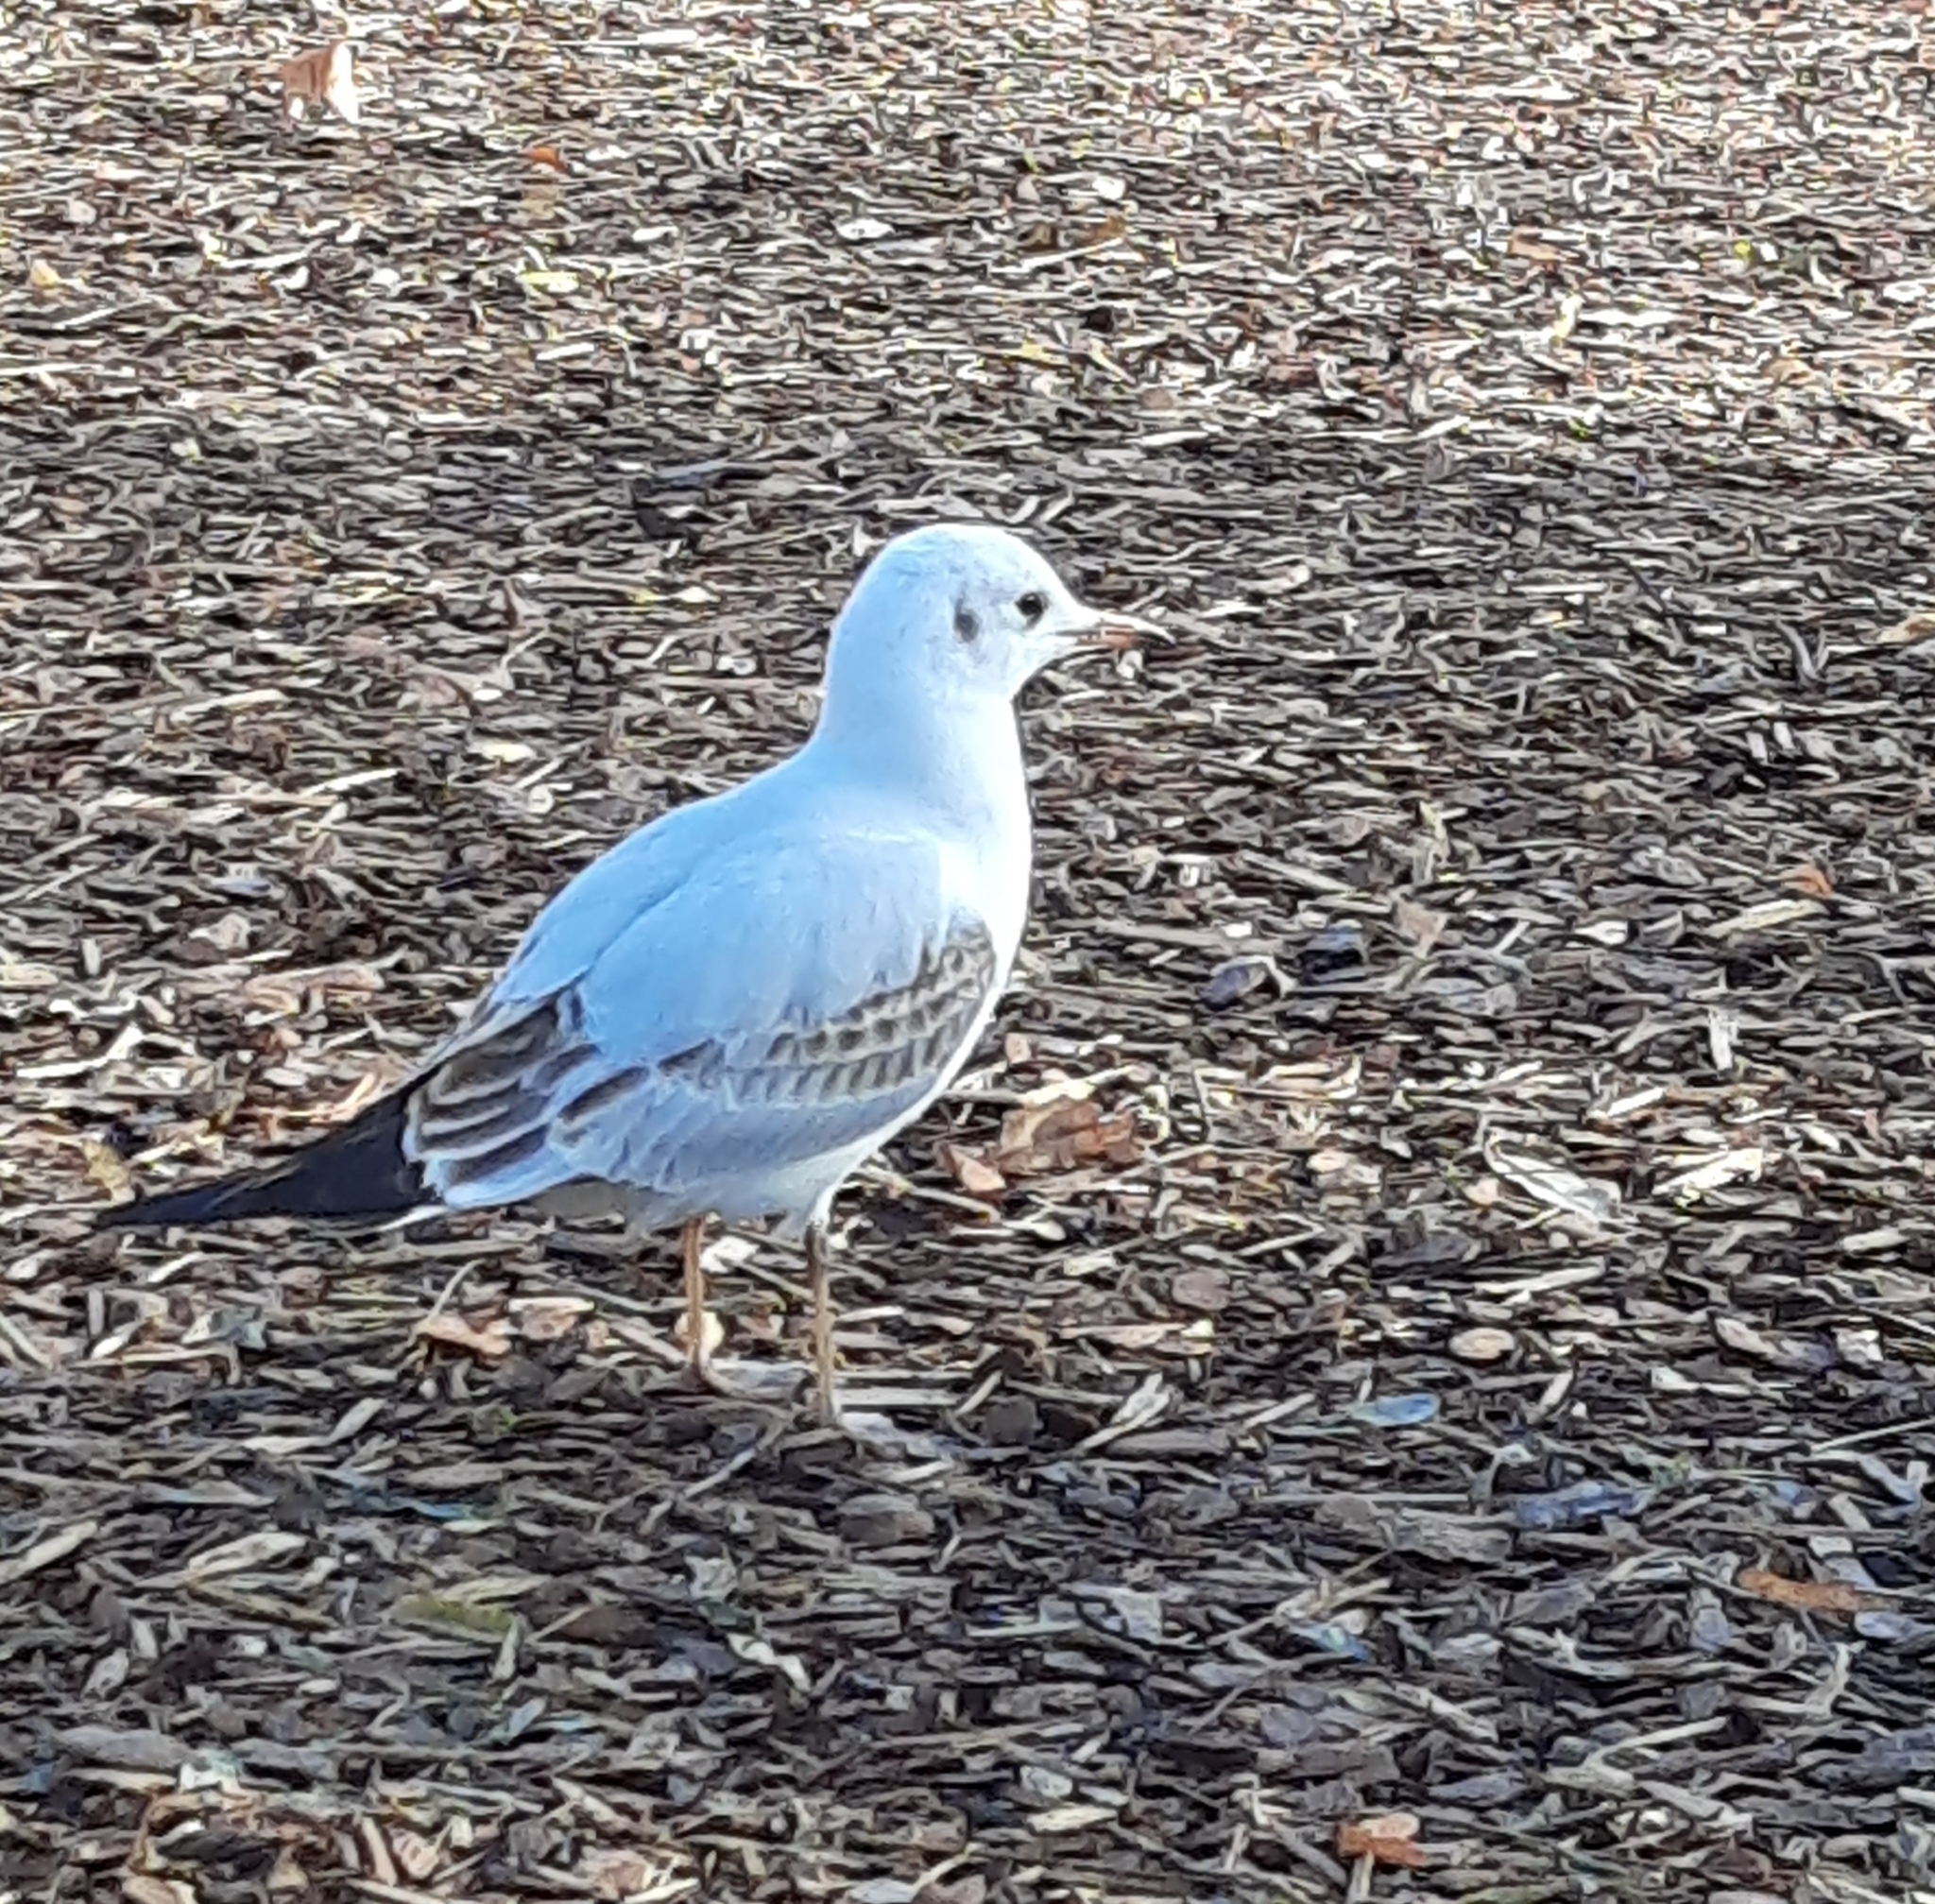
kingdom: Animalia
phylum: Chordata
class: Aves
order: Charadriiformes
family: Laridae
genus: Chroicocephalus
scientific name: Chroicocephalus ridibundus
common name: Black-headed gull
